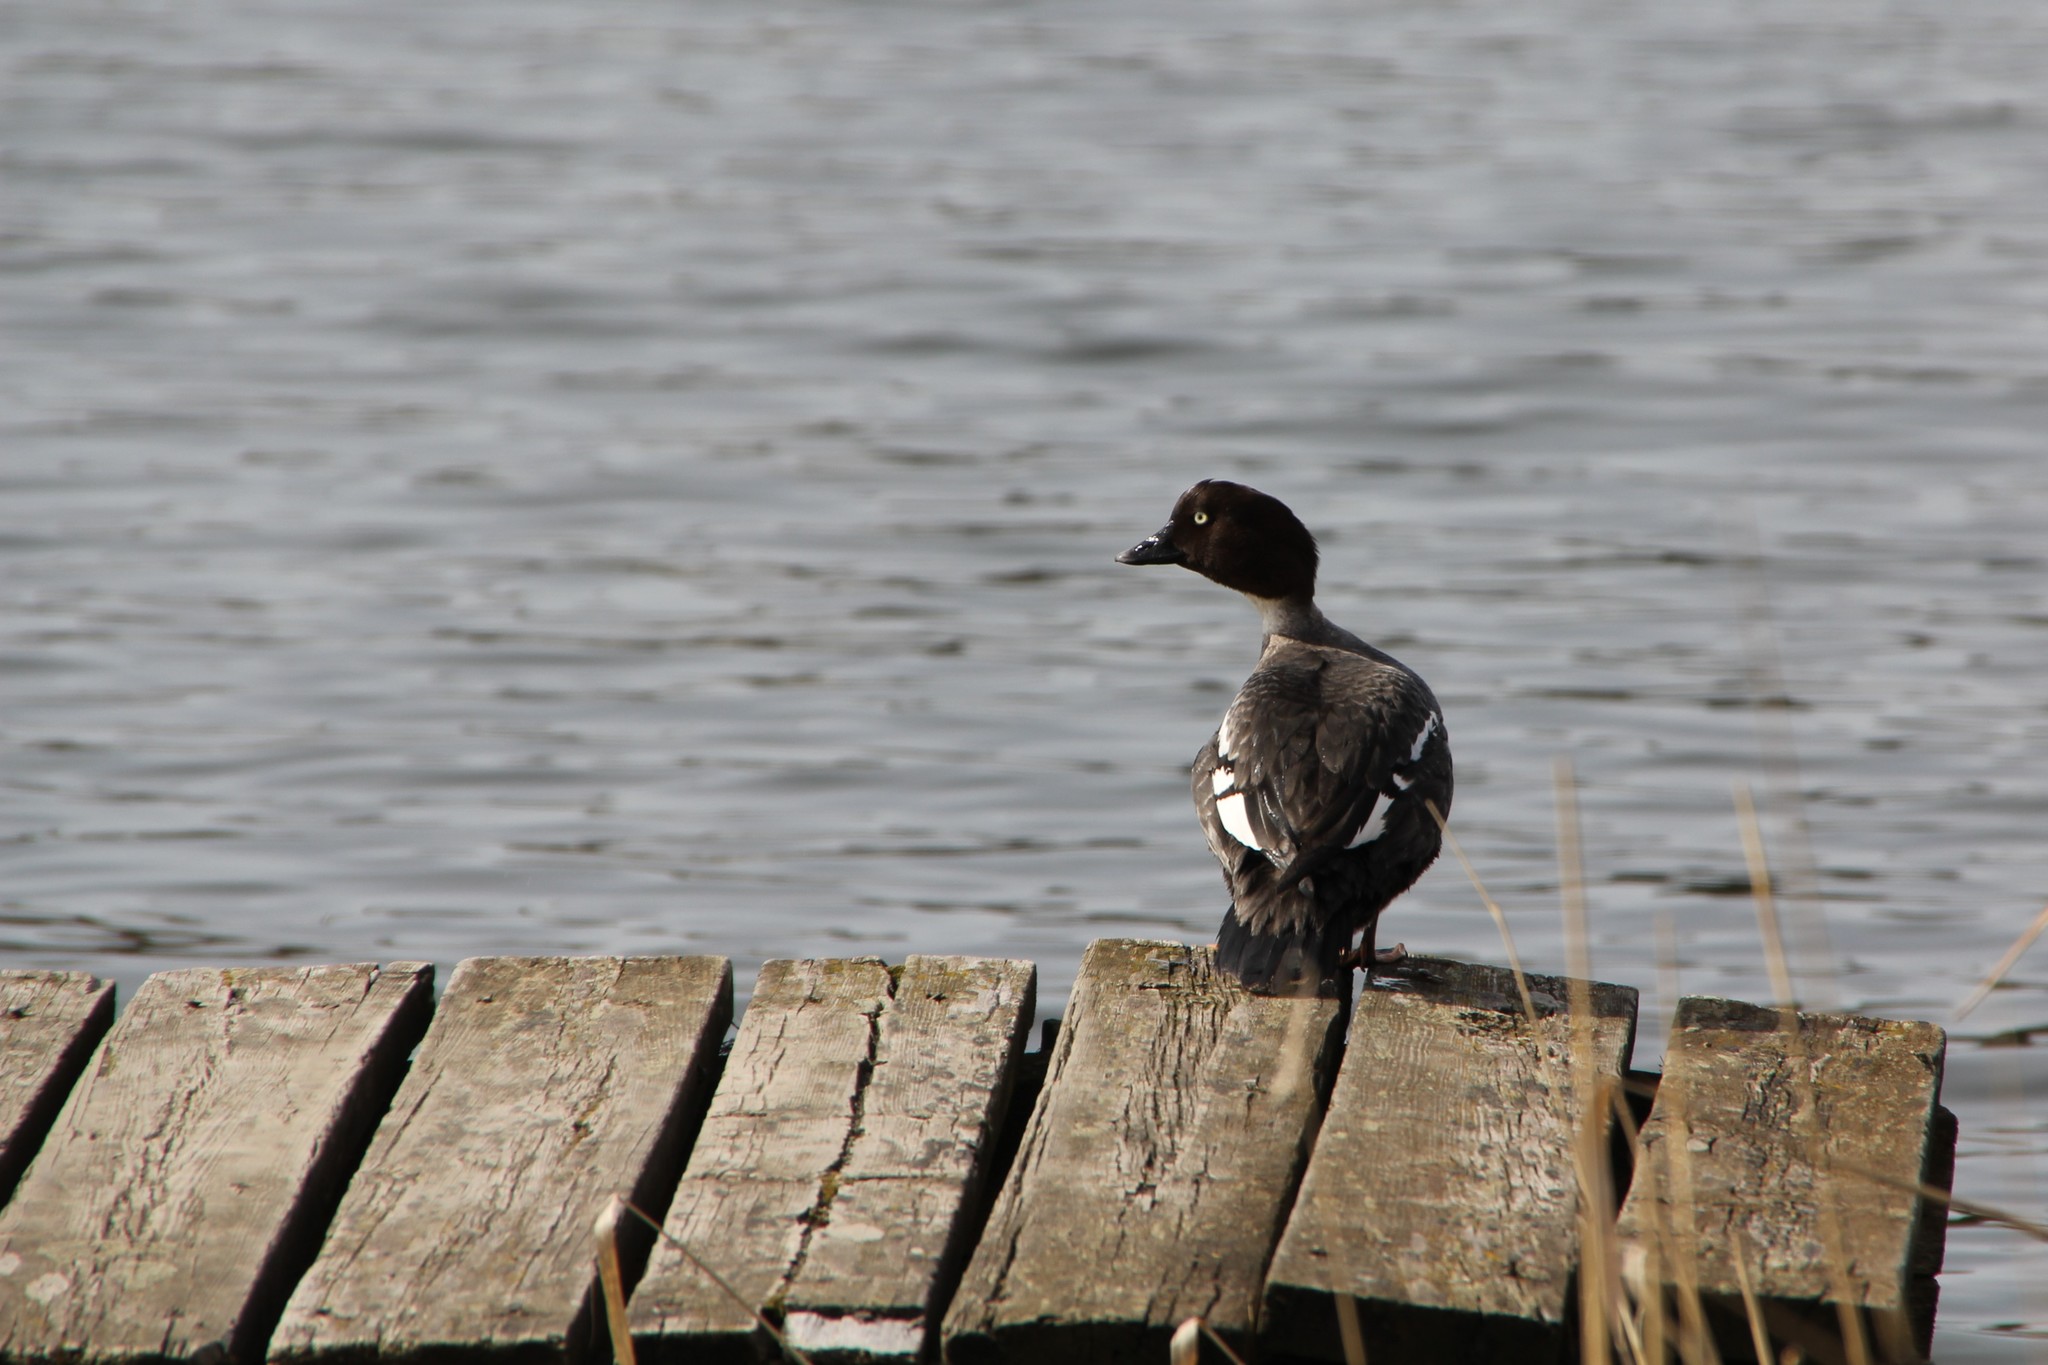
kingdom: Animalia
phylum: Chordata
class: Aves
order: Anseriformes
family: Anatidae
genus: Bucephala
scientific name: Bucephala clangula
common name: Common goldeneye
